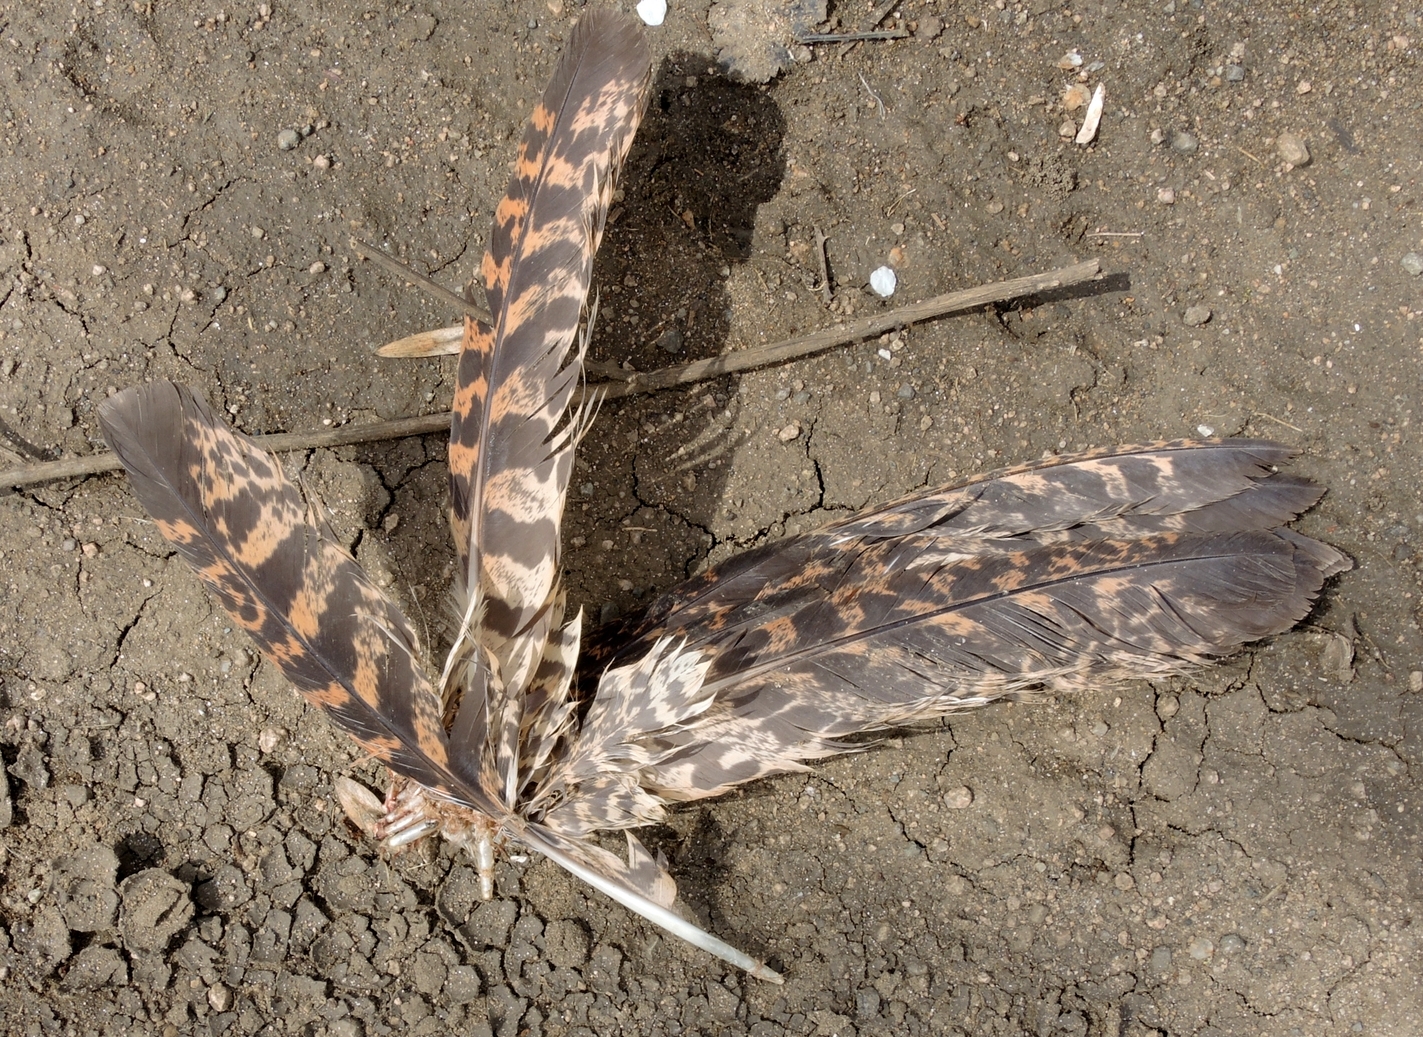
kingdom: Animalia
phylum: Chordata
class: Aves
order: Pelecaniformes
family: Ardeidae
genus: Botaurus
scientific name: Botaurus stellaris
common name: Eurasian bittern
